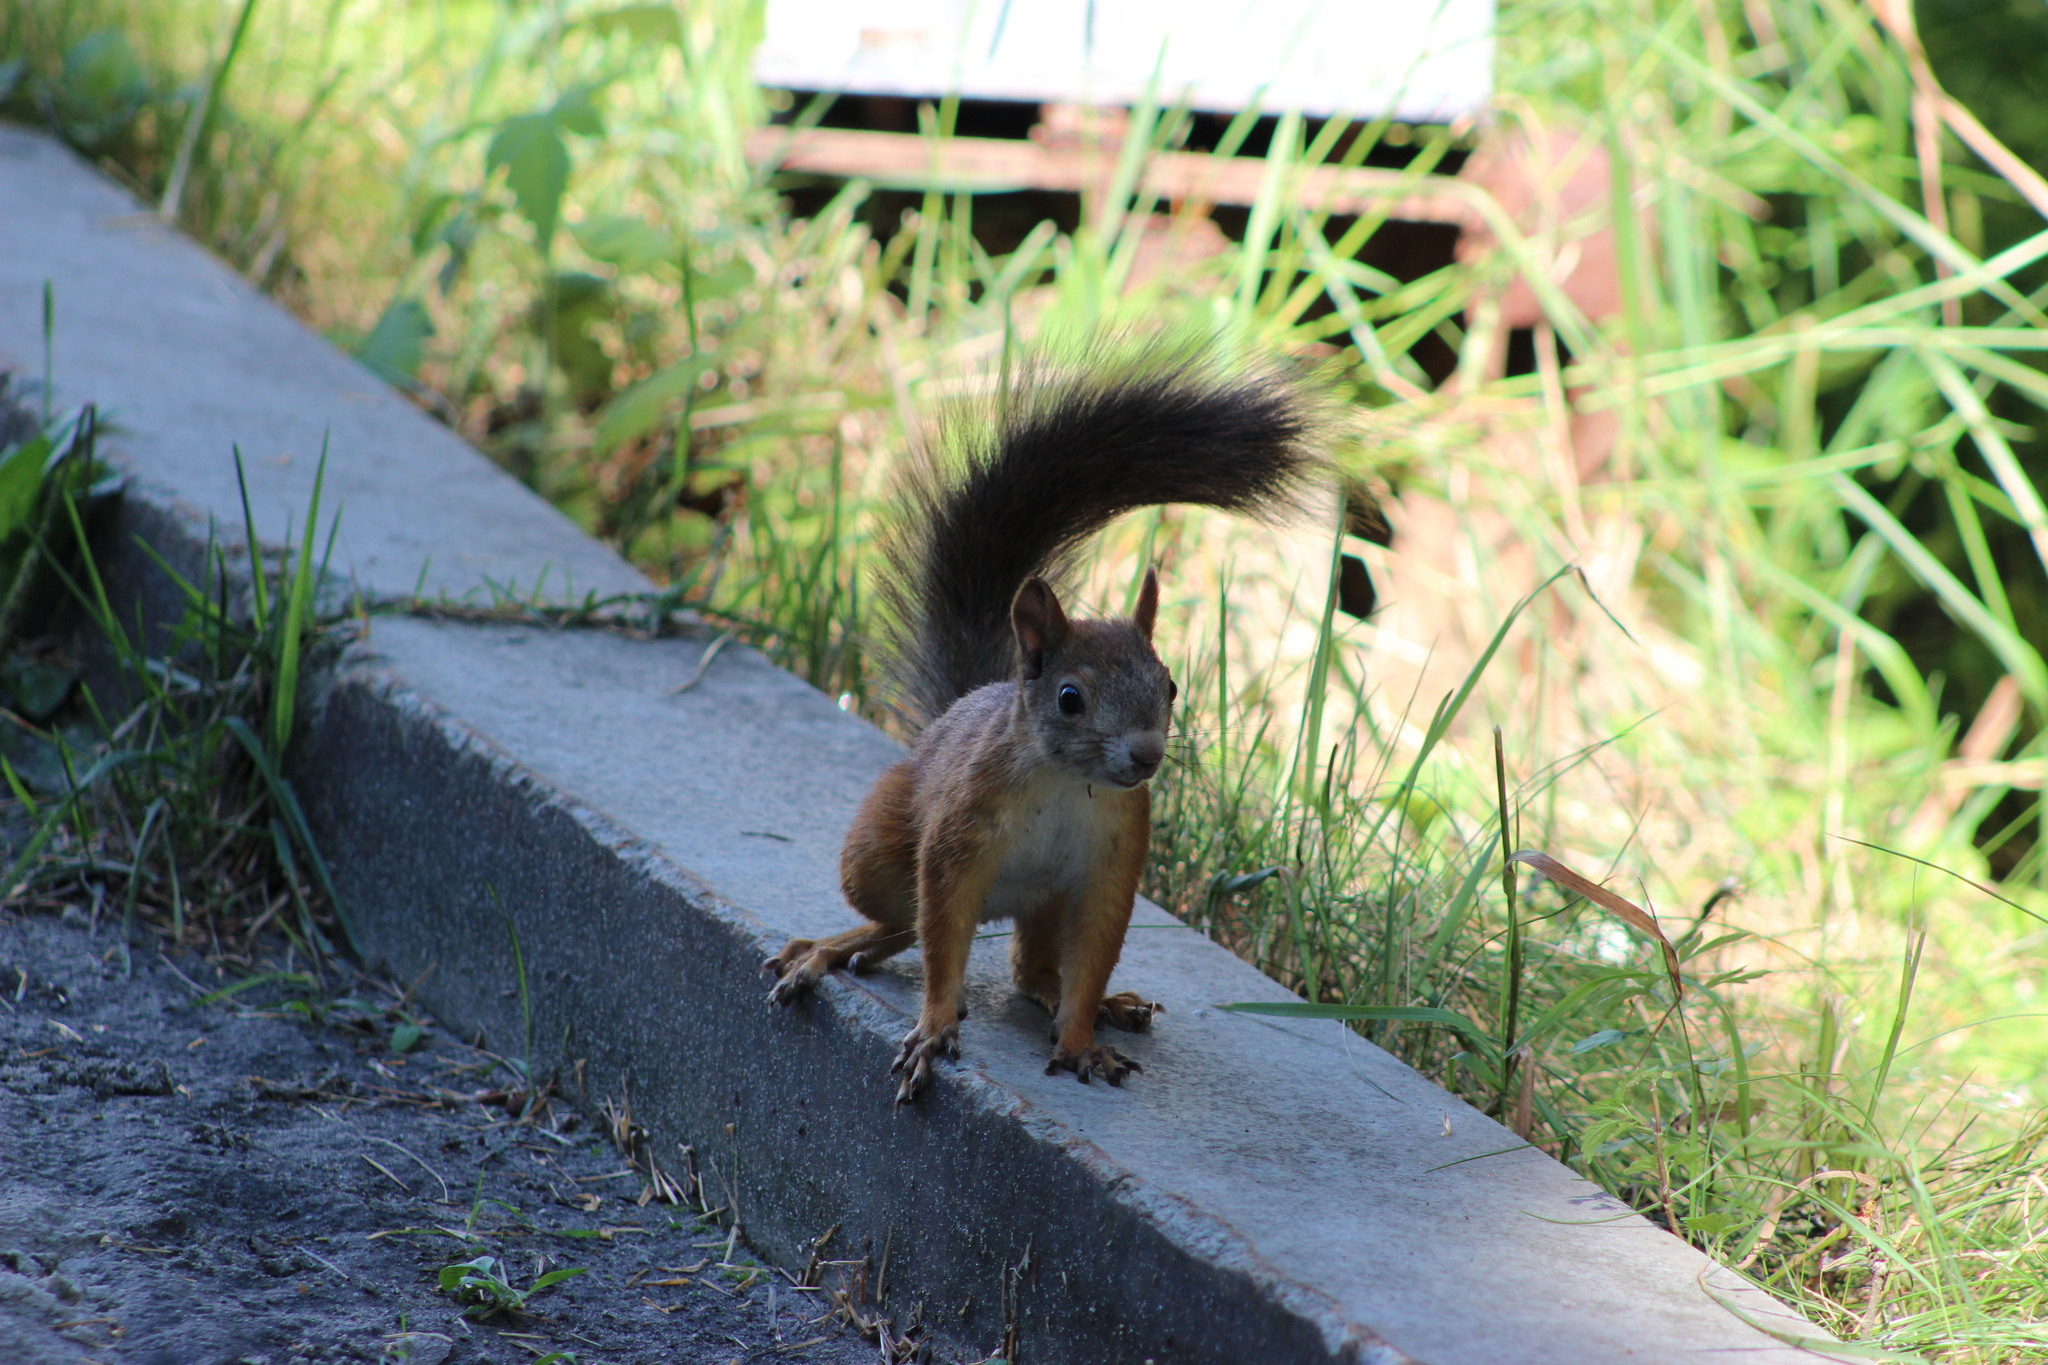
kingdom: Animalia
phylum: Chordata
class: Mammalia
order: Rodentia
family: Sciuridae
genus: Sciurus
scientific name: Sciurus vulgaris
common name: Eurasian red squirrel
